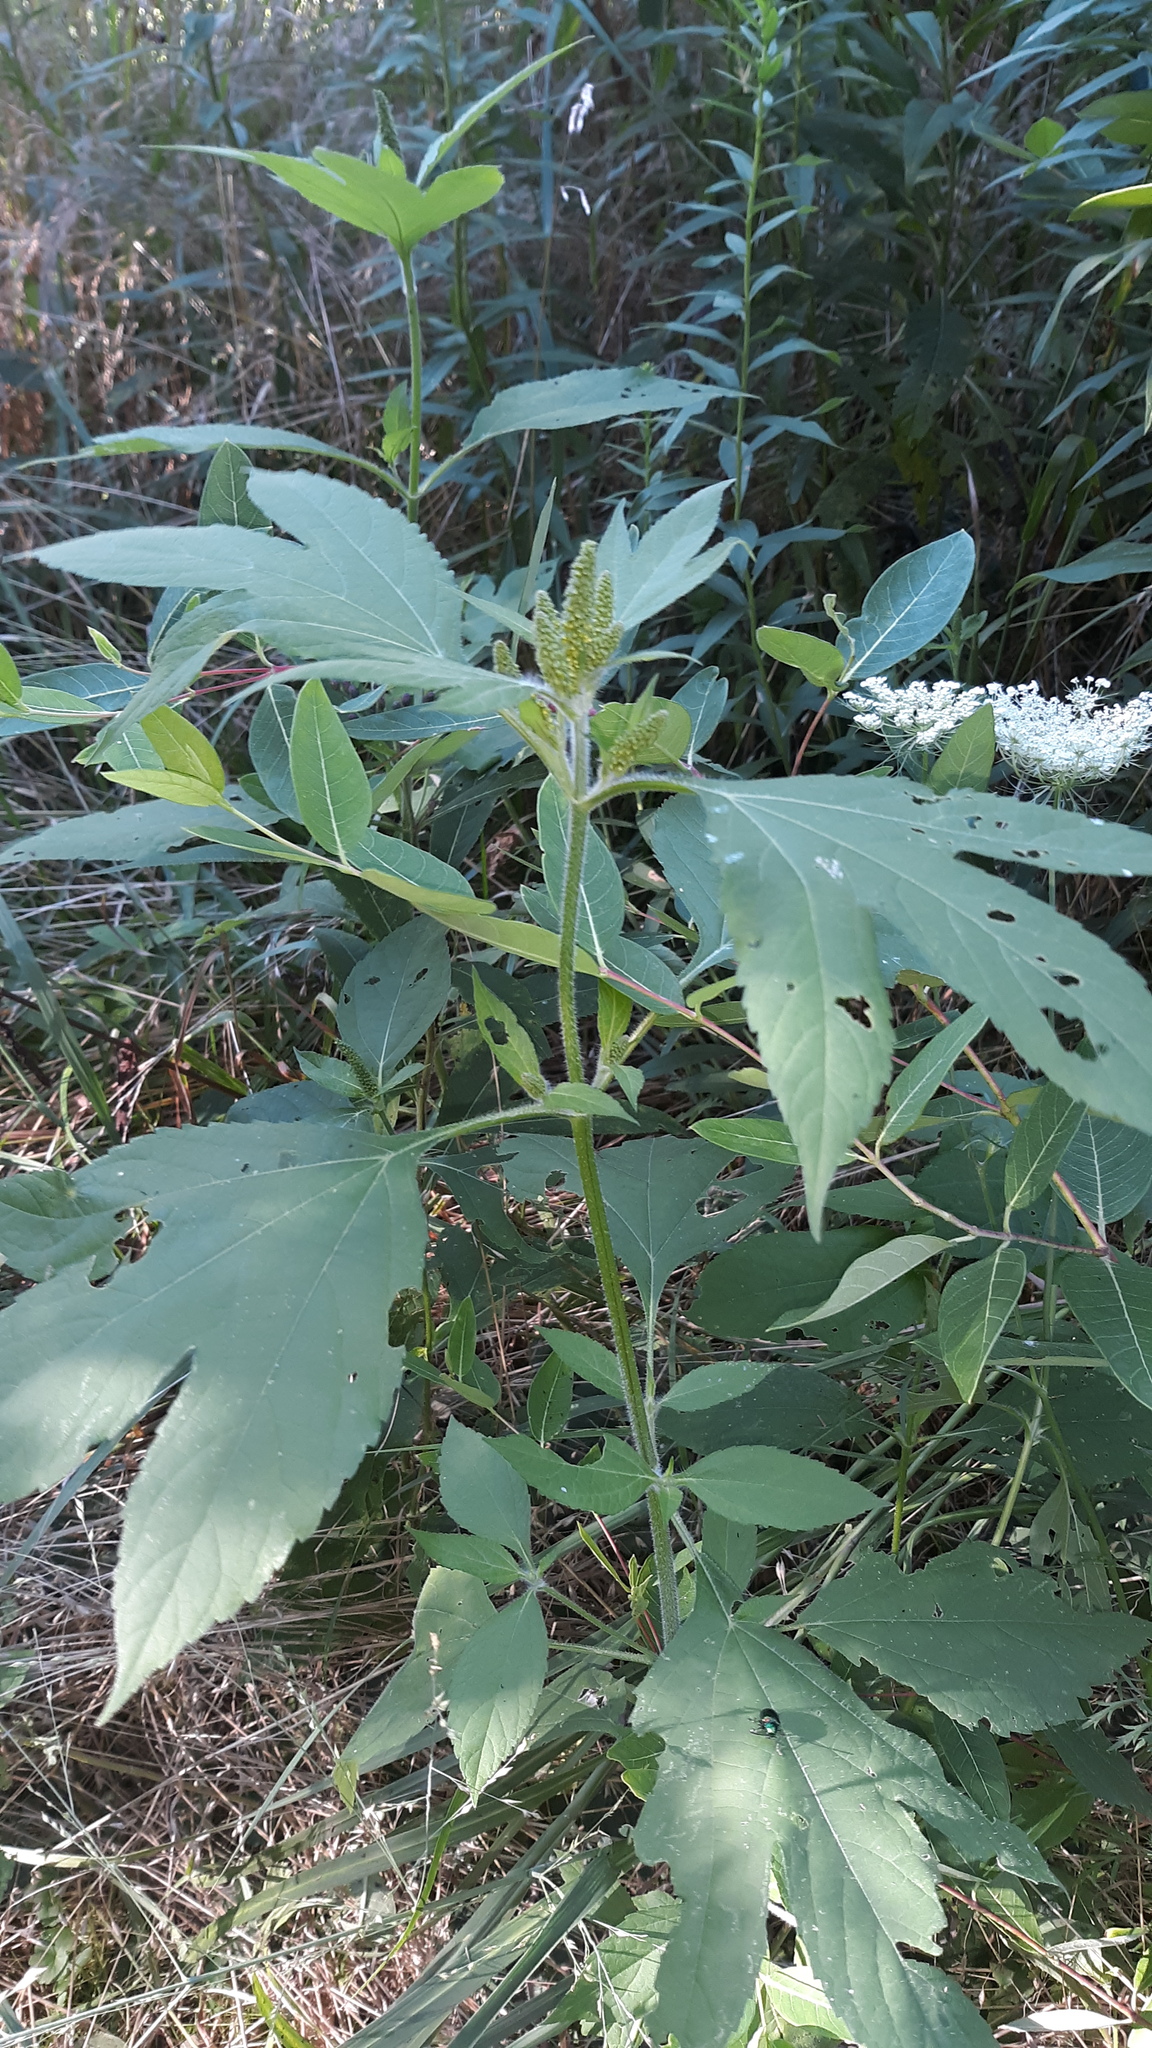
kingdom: Plantae
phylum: Tracheophyta
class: Magnoliopsida
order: Asterales
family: Asteraceae
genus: Ambrosia
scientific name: Ambrosia trifida
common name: Giant ragweed
